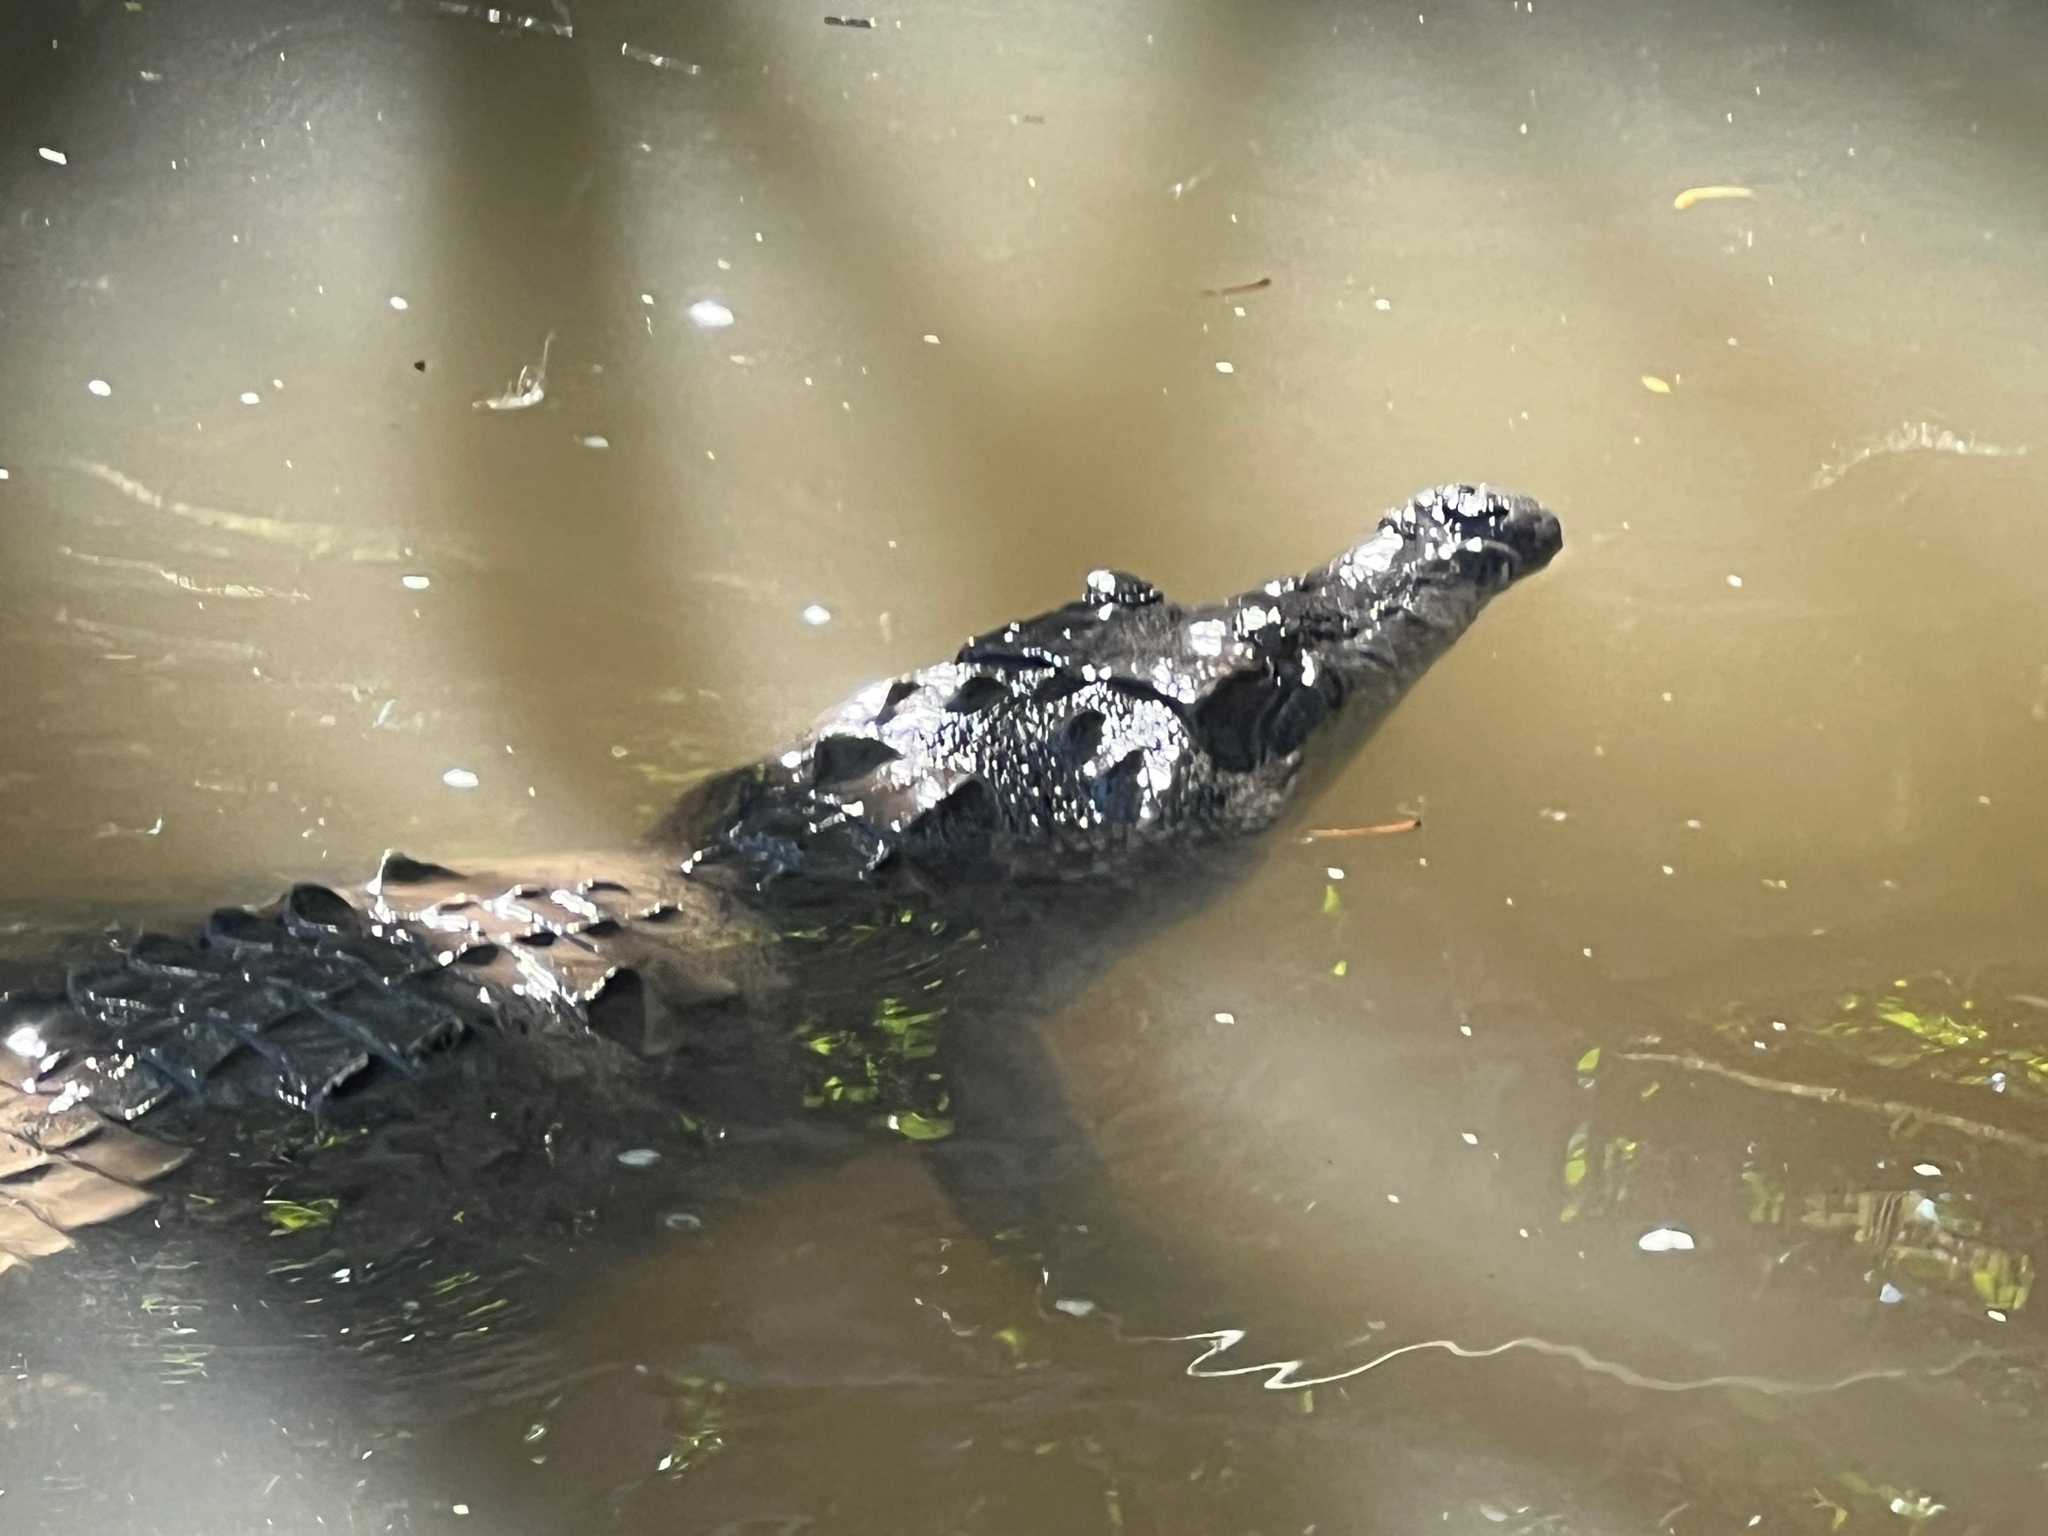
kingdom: Animalia
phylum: Chordata
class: Crocodylia
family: Crocodylidae
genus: Crocodylus
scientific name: Crocodylus acutus
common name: American crocodile
